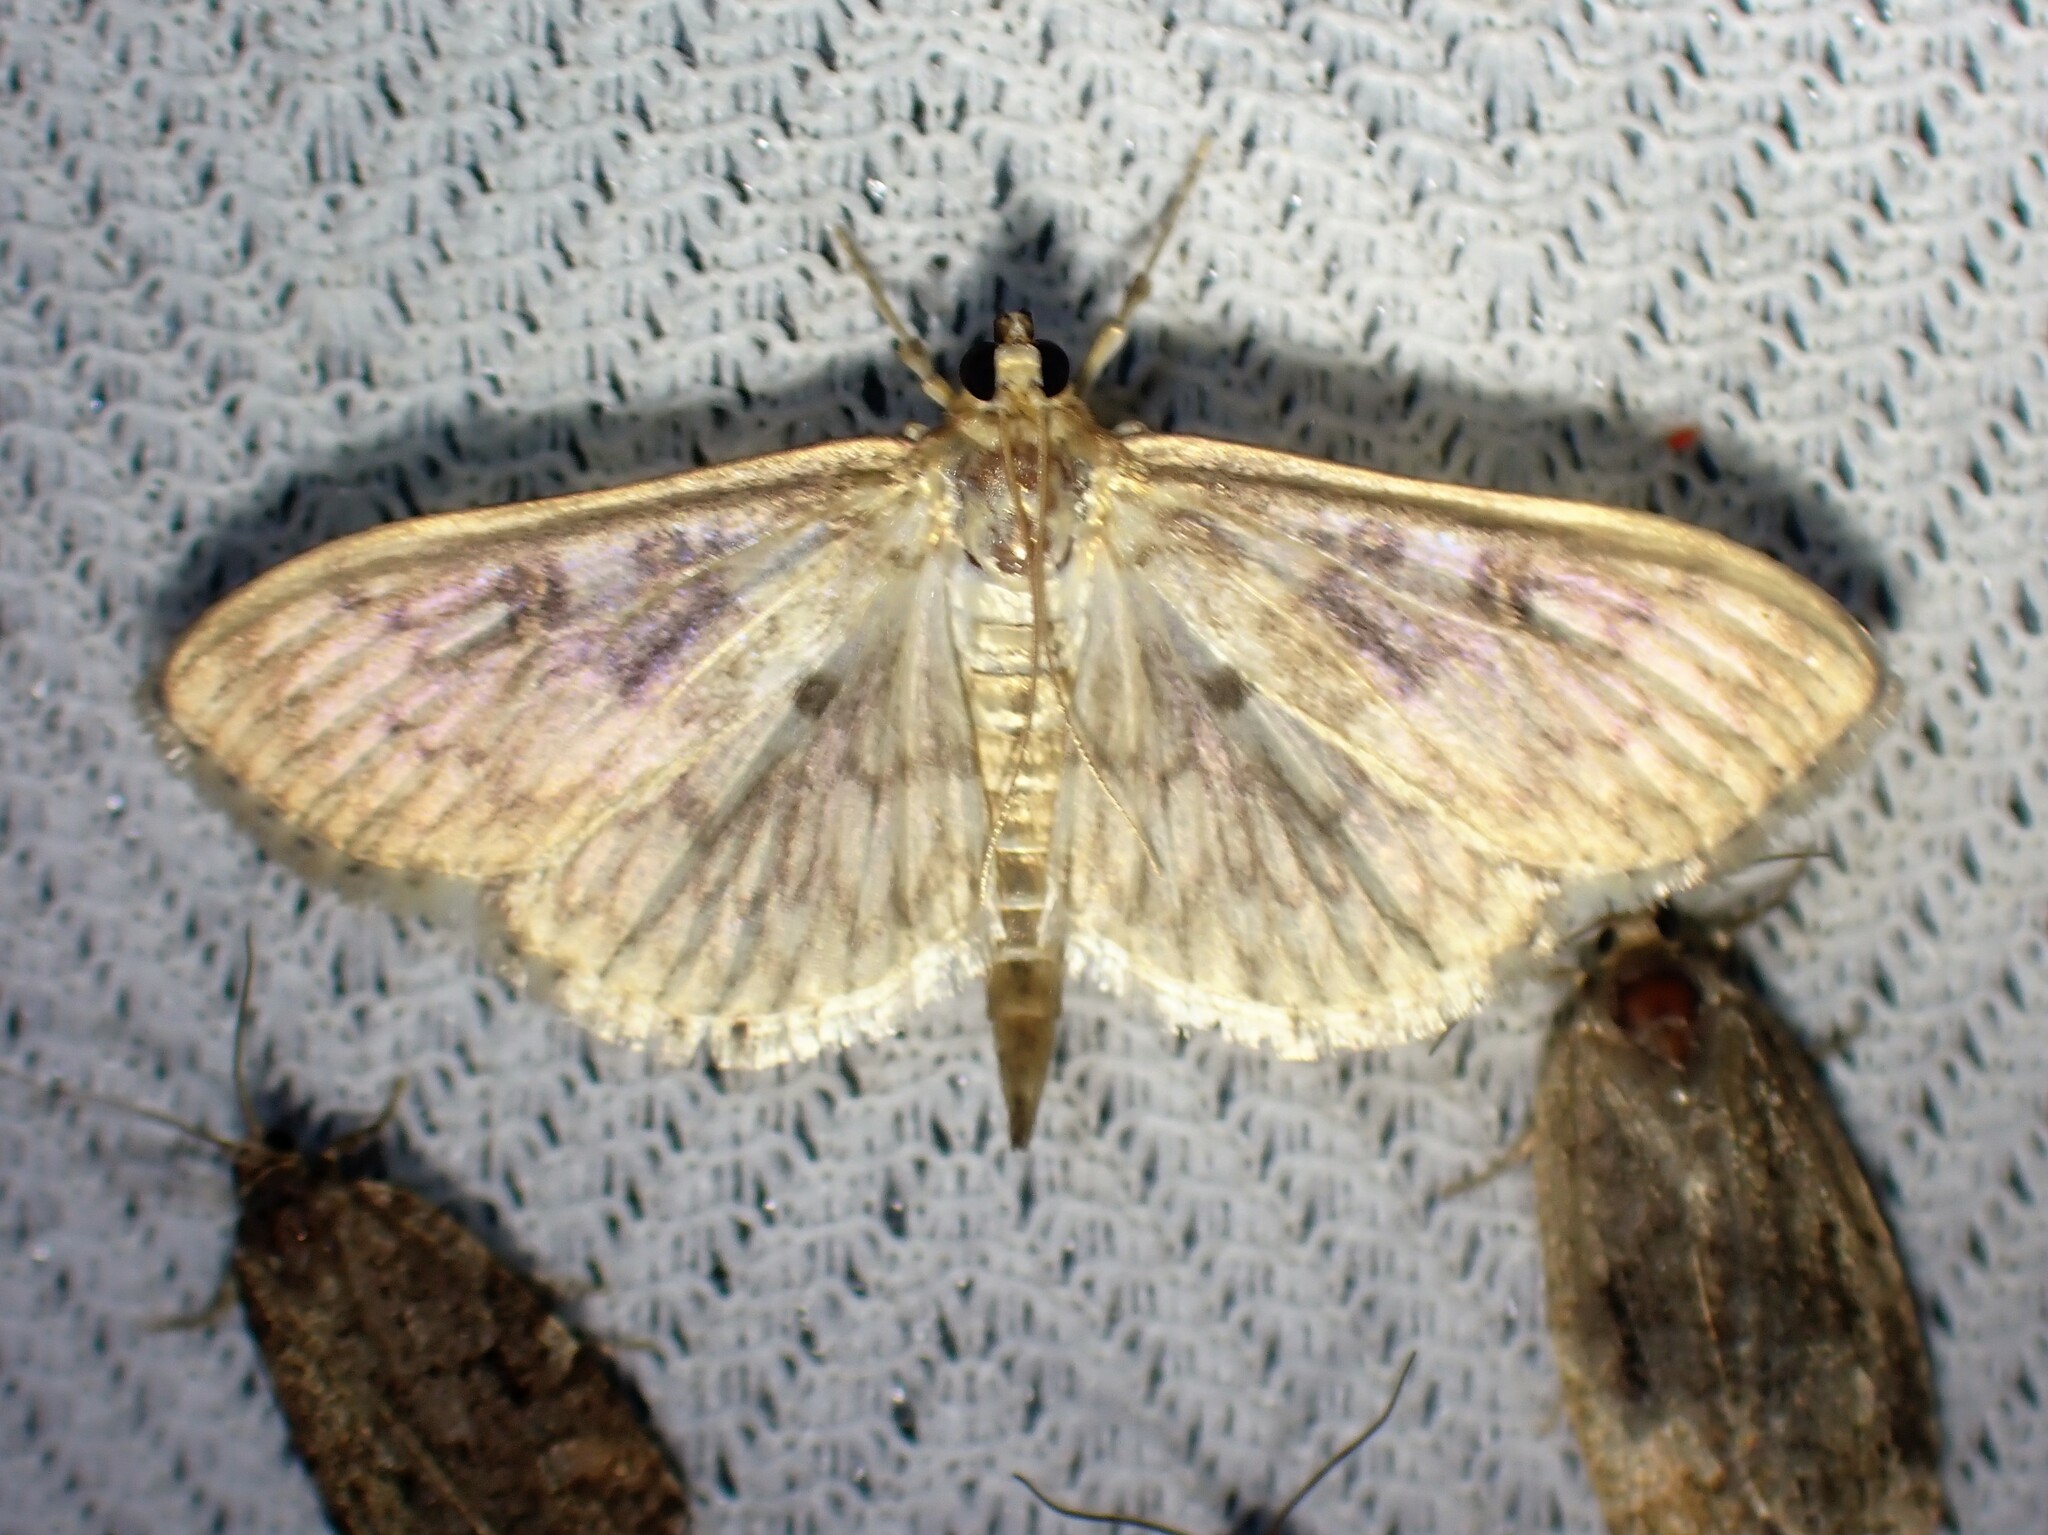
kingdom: Animalia
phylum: Arthropoda
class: Insecta
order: Lepidoptera
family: Crambidae
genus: Herpetogramma
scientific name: Herpetogramma aquilonalis
